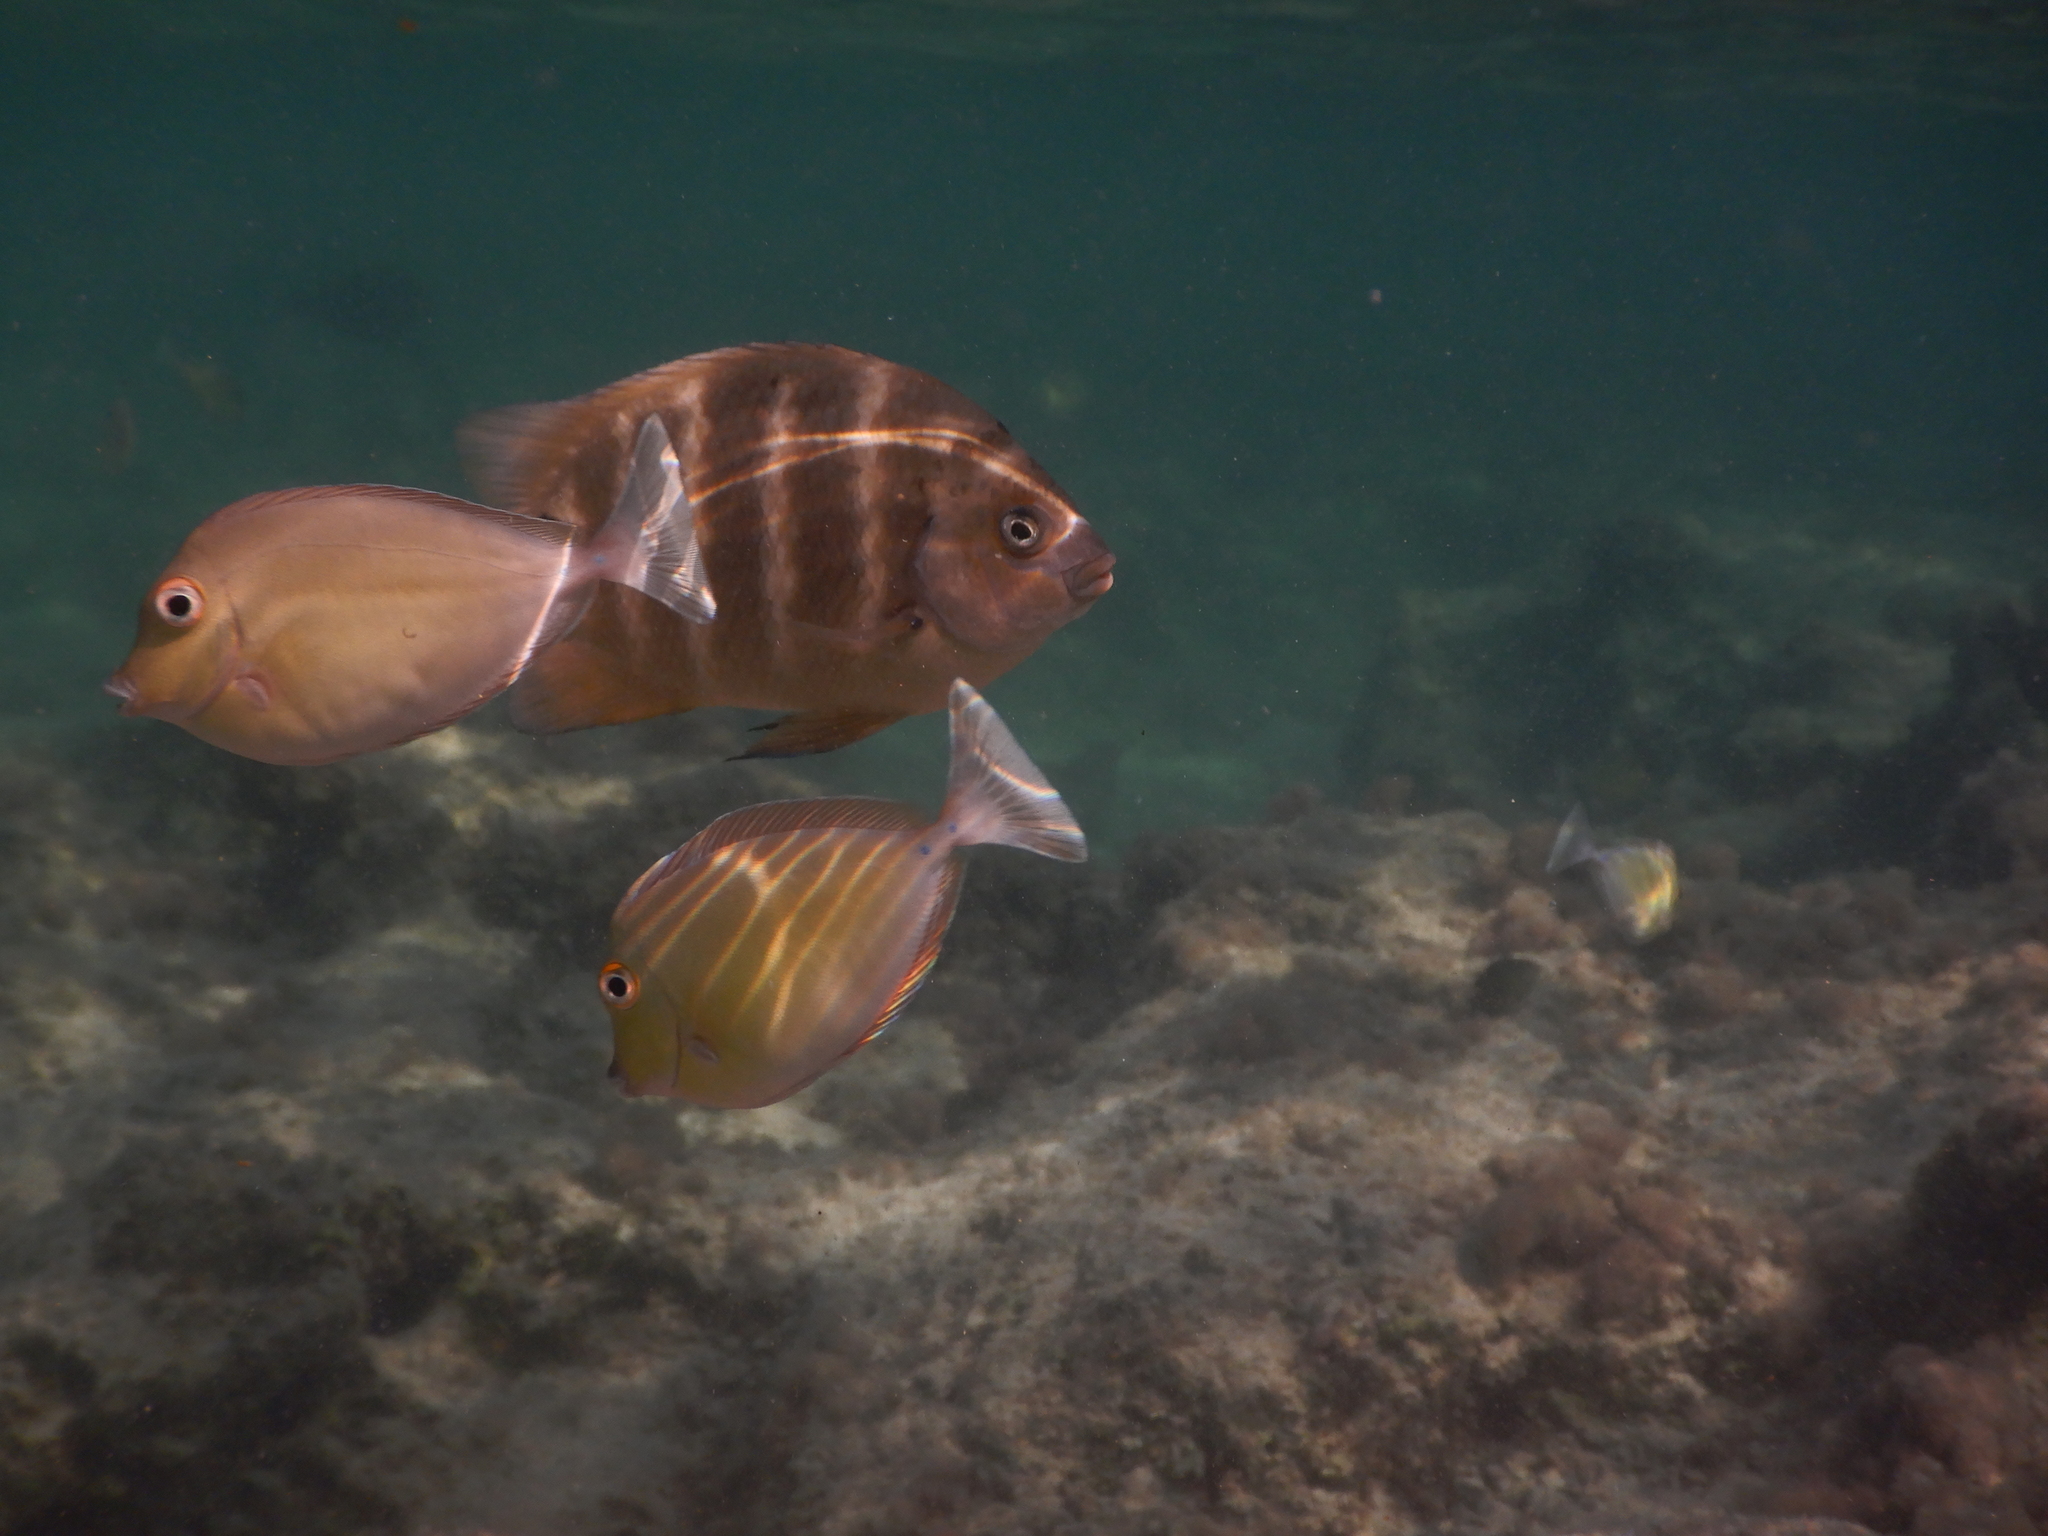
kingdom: Animalia
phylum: Chordata
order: Perciformes
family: Pomacentridae
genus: Abudefduf
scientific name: Abudefduf sordidus
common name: Blackspot sergeant
